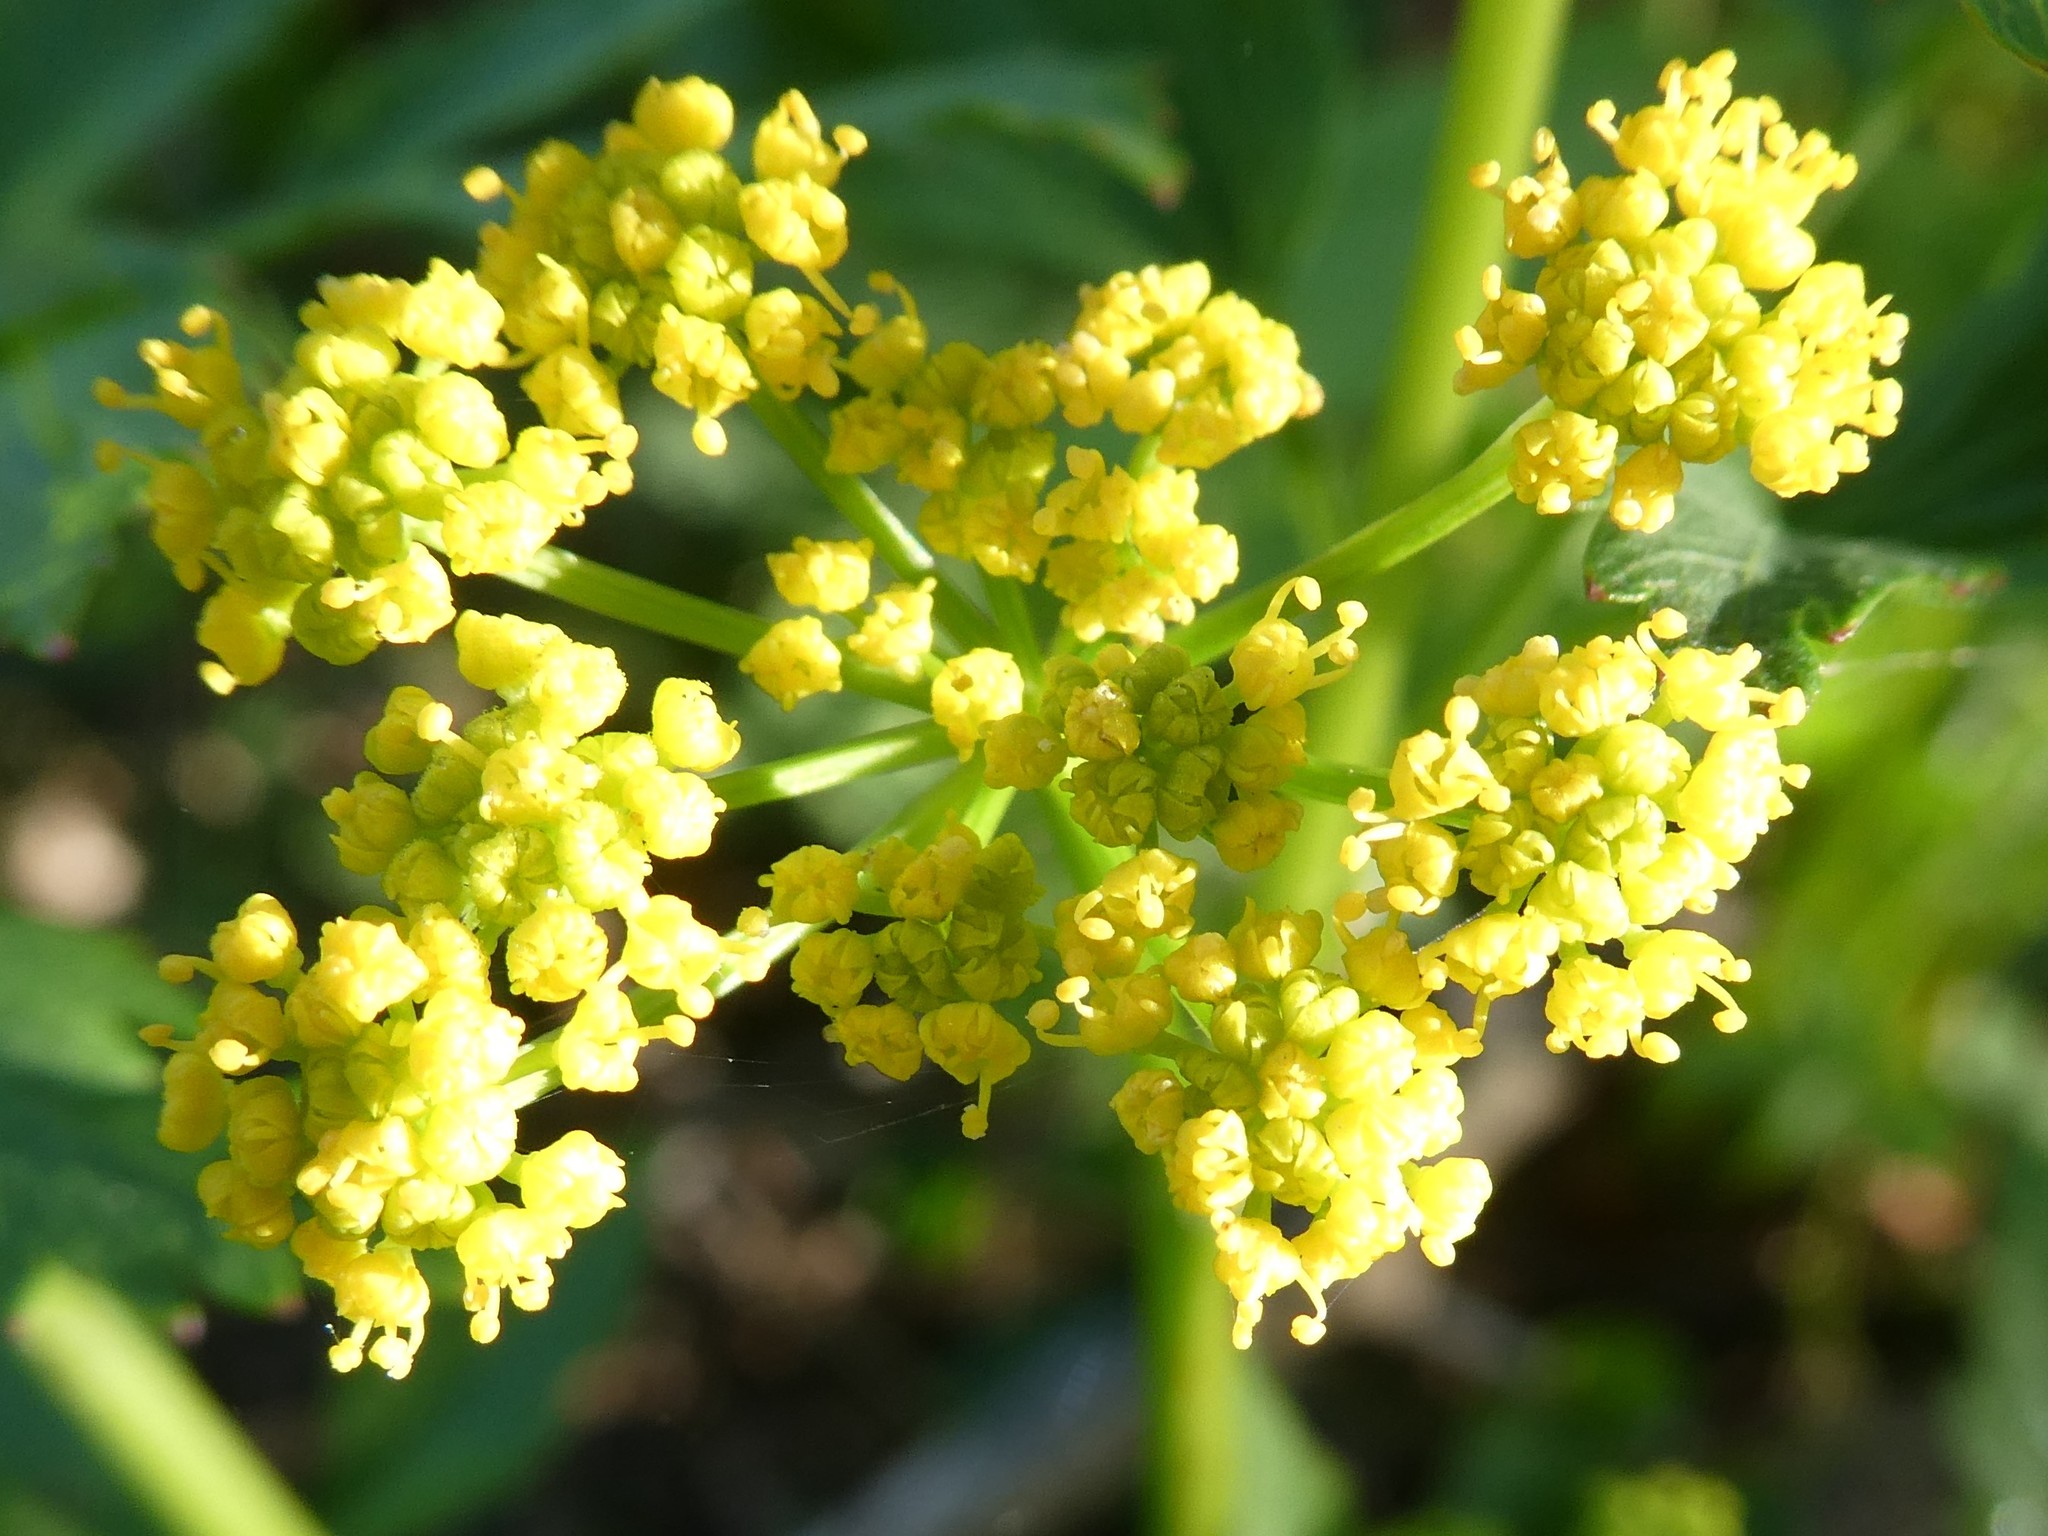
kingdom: Plantae
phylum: Tracheophyta
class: Magnoliopsida
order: Apiales
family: Apiaceae
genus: Zizia
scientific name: Zizia aurea
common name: Golden alexanders
